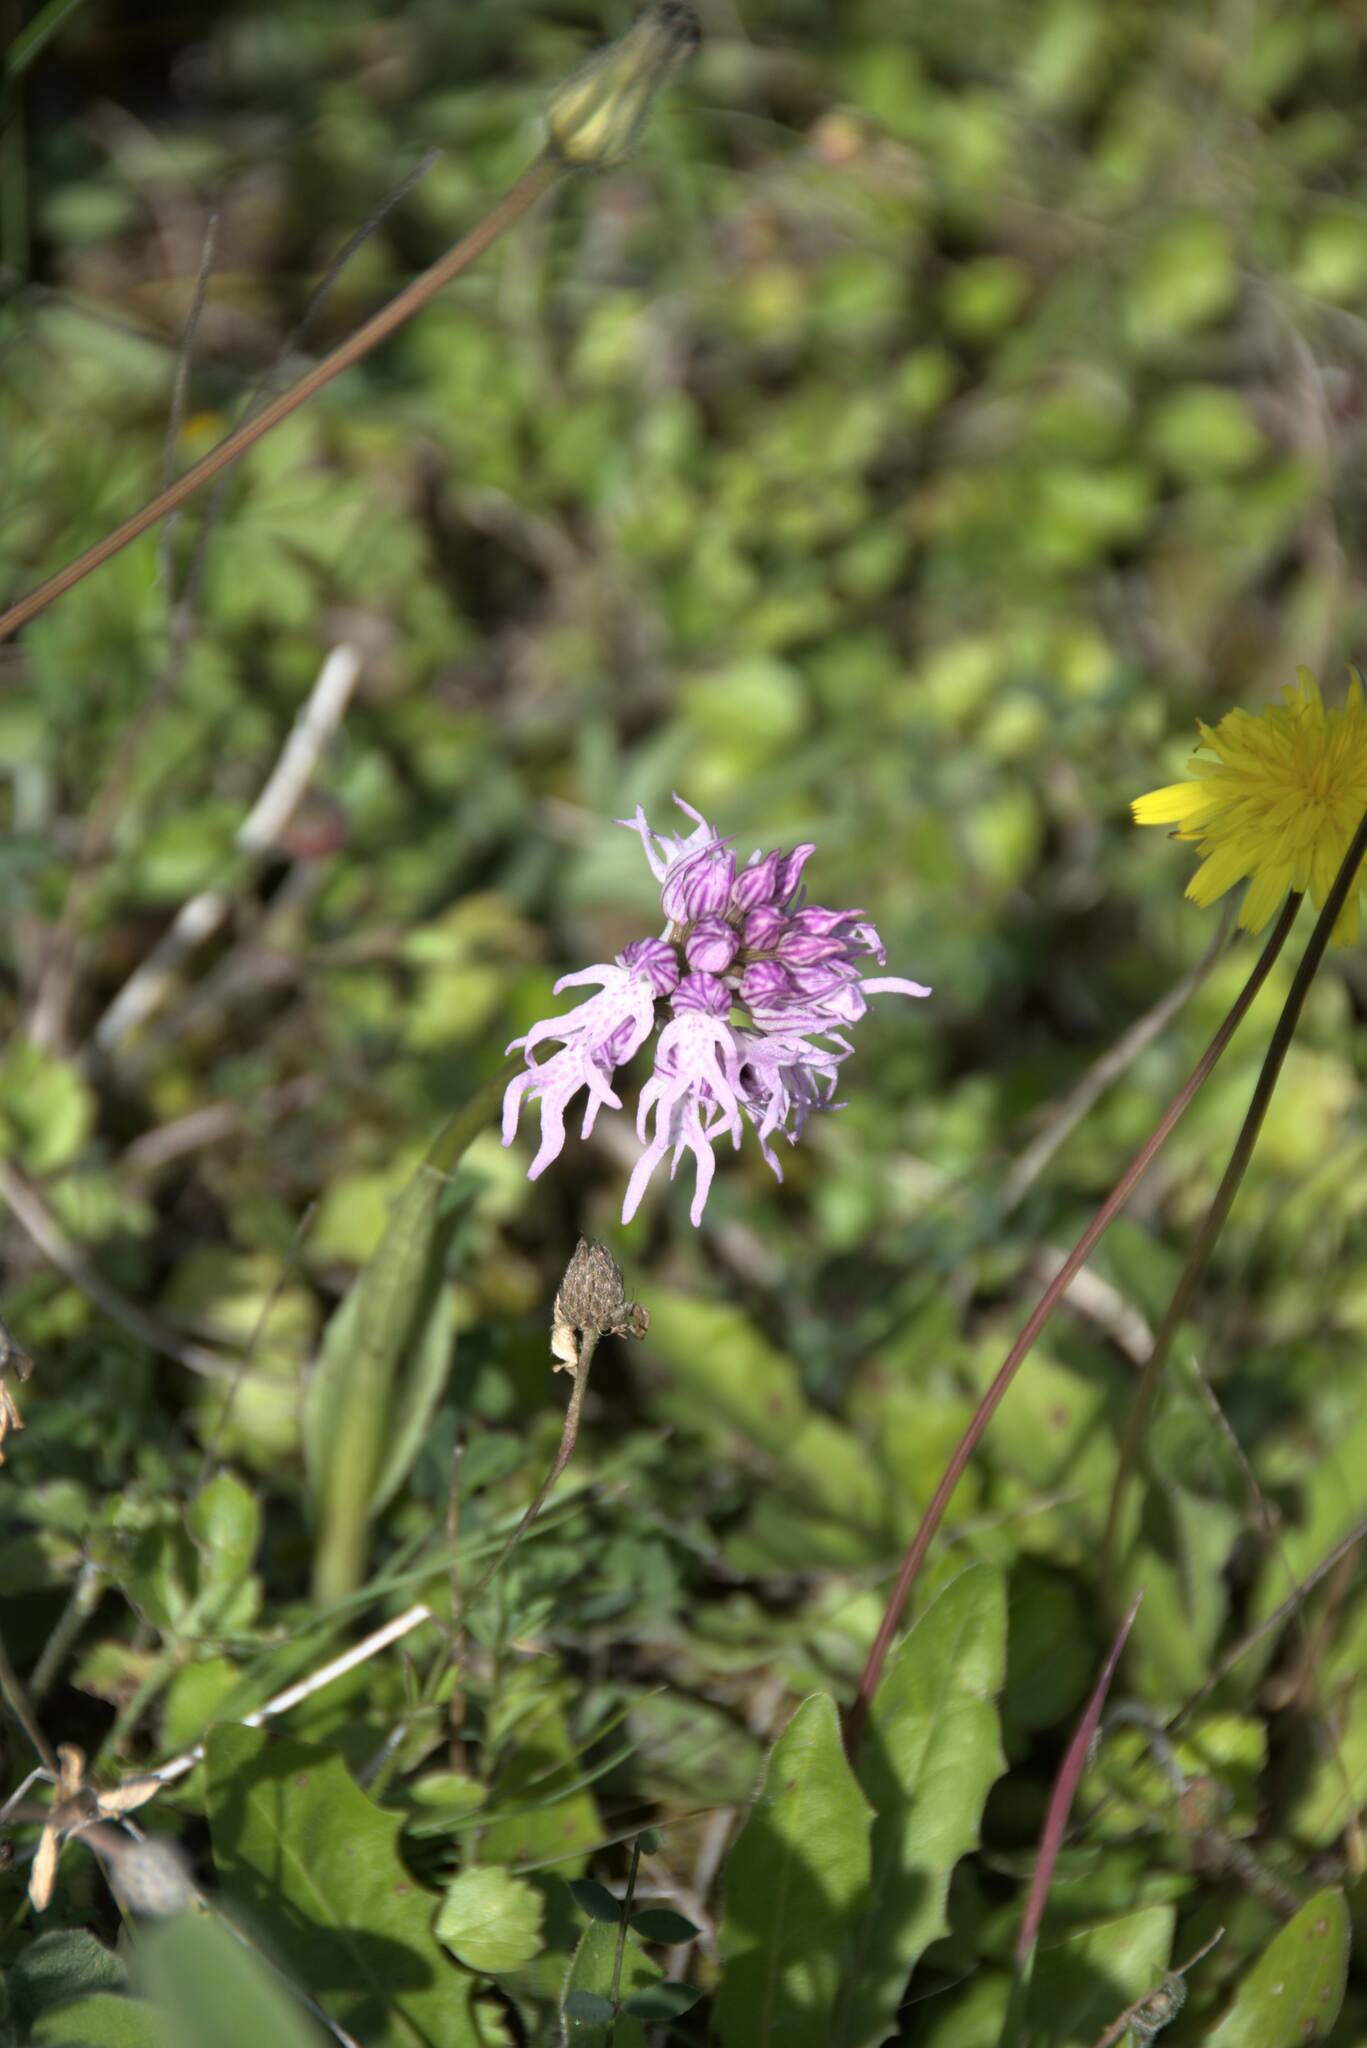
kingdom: Plantae
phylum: Tracheophyta
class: Liliopsida
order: Asparagales
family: Orchidaceae
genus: Orchis
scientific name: Orchis italica
